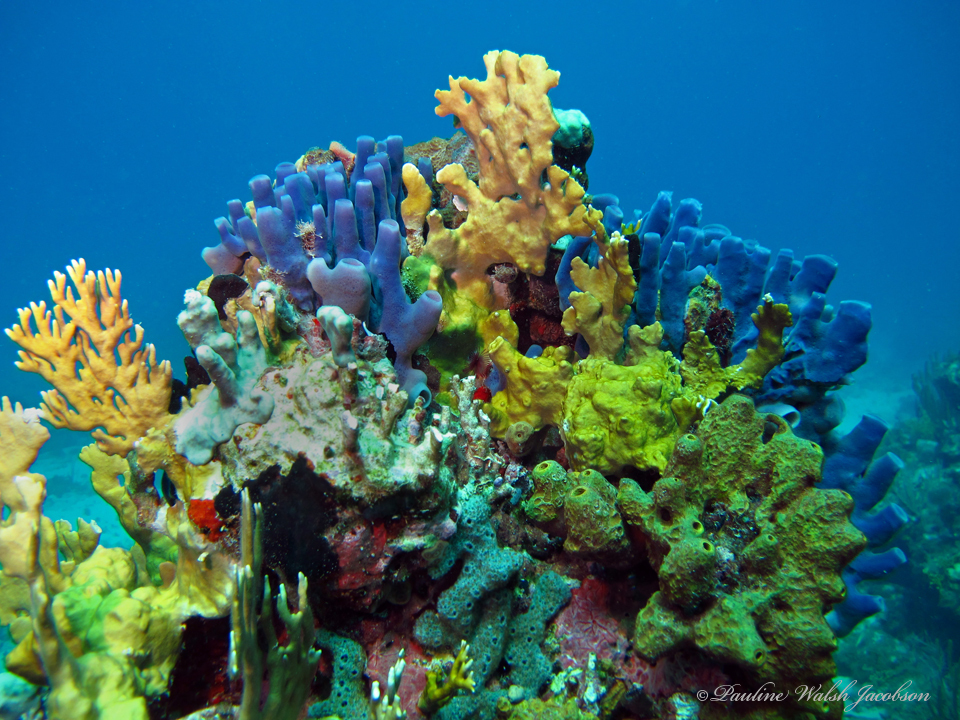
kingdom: Animalia
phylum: Porifera
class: Demospongiae
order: Haplosclerida
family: Callyspongiidae
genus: Callyspongia
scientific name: Callyspongia fallax
